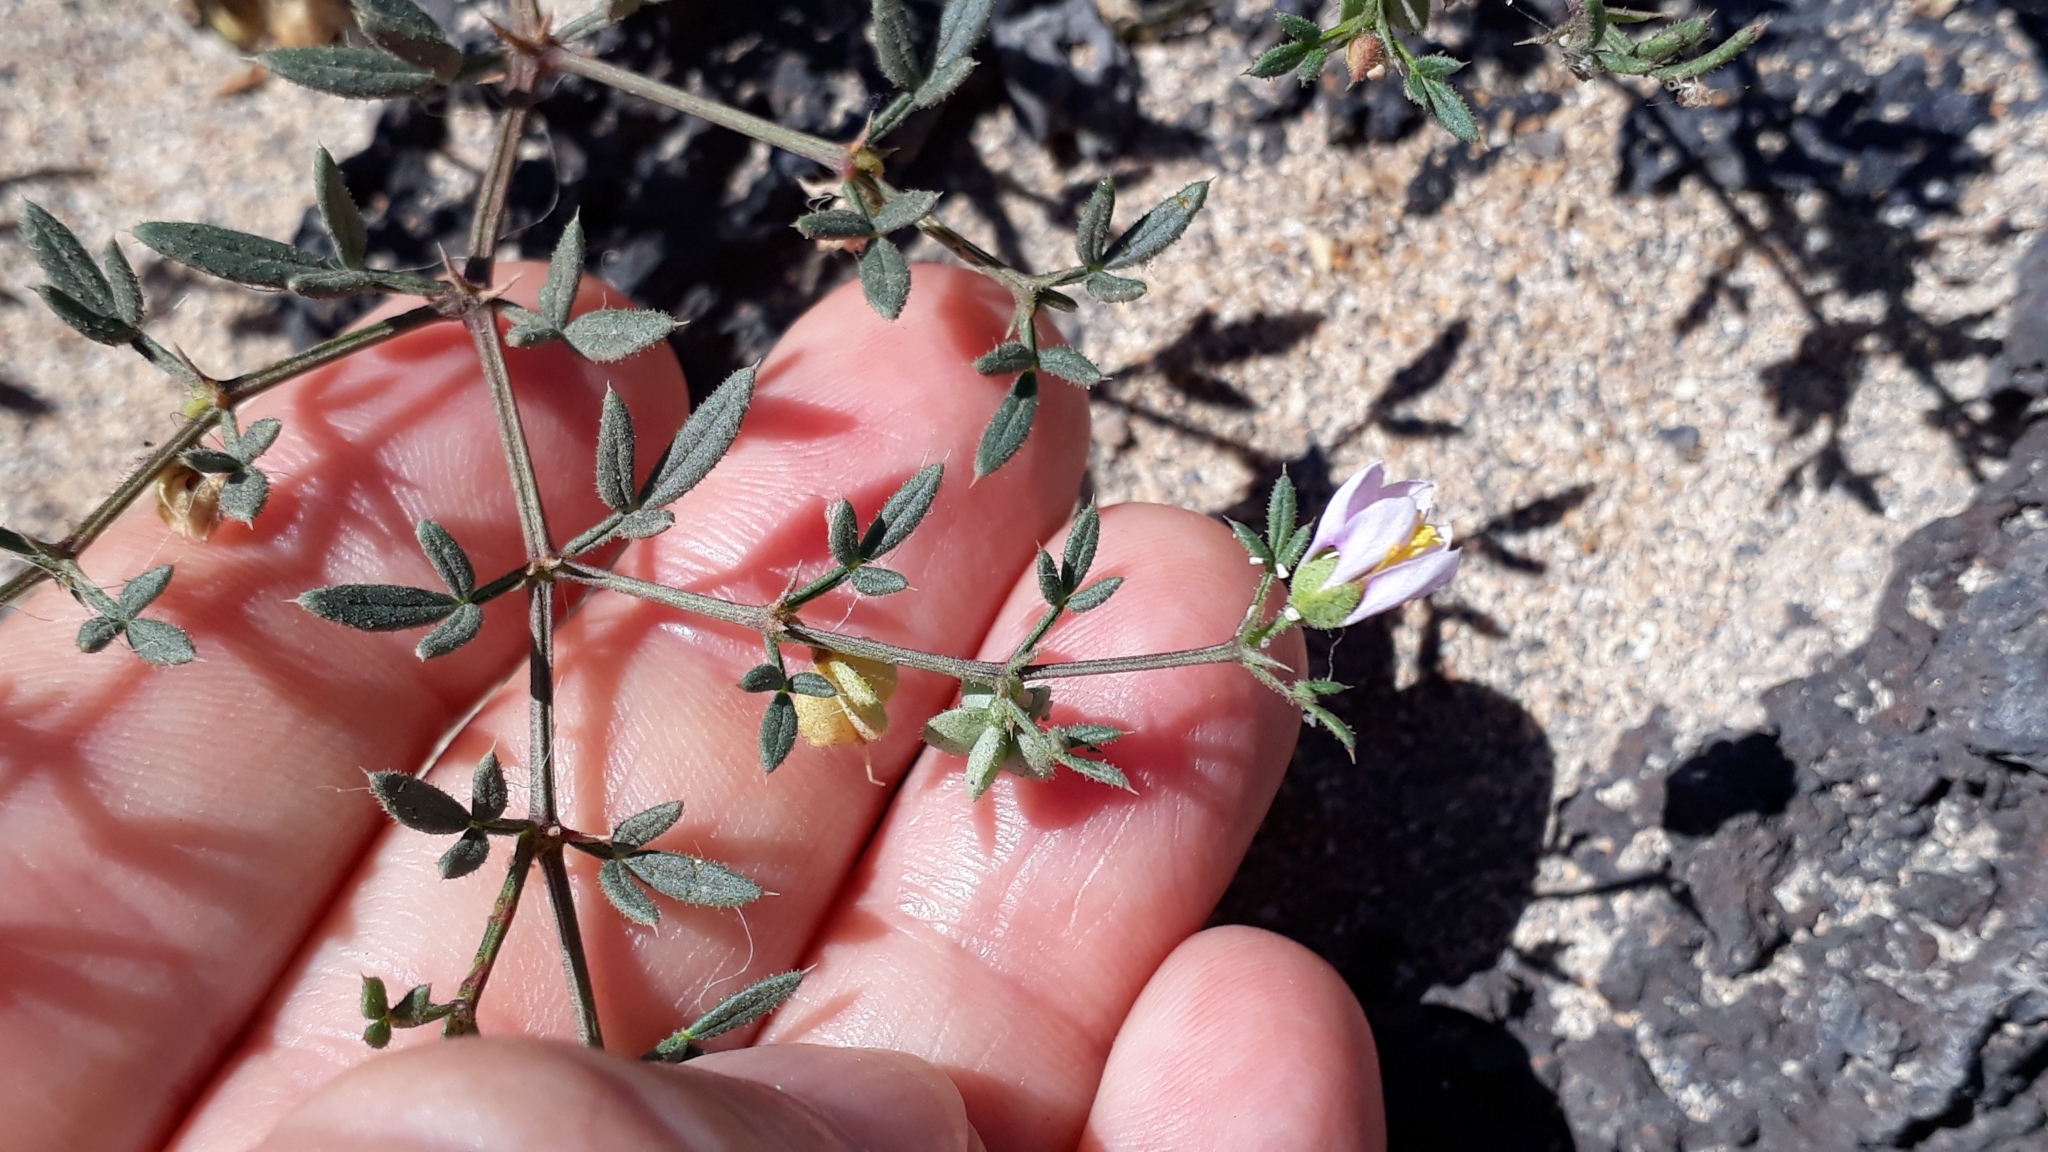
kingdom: Plantae
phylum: Tracheophyta
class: Magnoliopsida
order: Zygophyllales
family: Zygophyllaceae
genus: Fagonia
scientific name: Fagonia cretica
